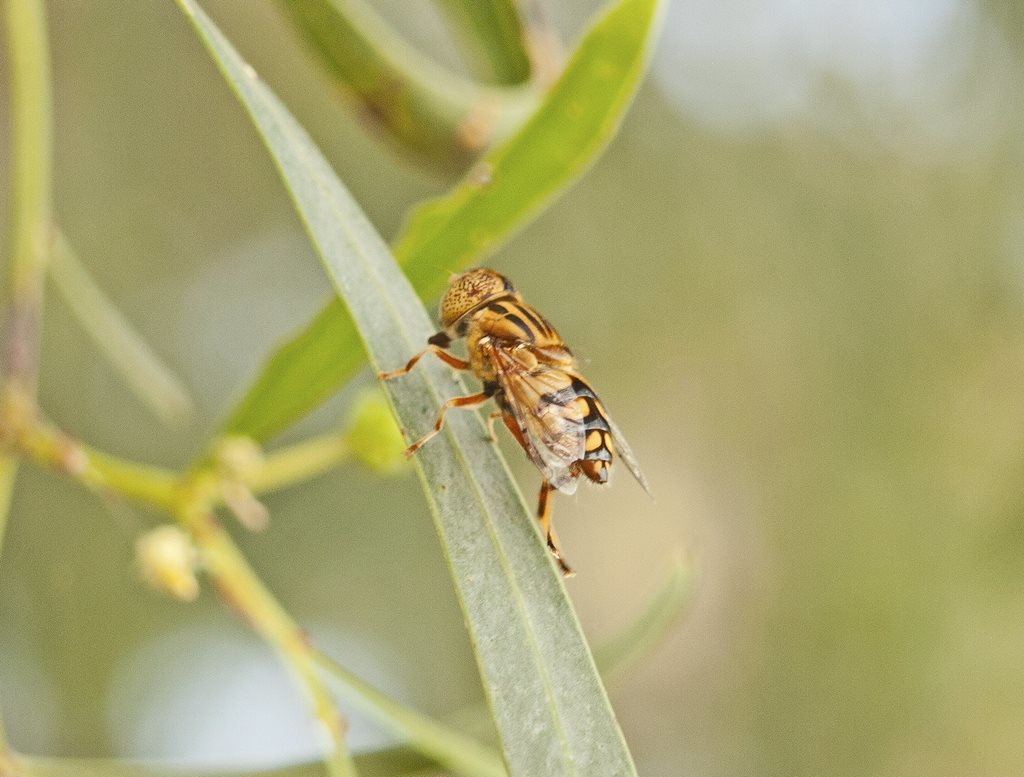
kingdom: Animalia
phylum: Arthropoda
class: Insecta
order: Diptera
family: Syrphidae
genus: Eristalinus
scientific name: Eristalinus punctulatus
